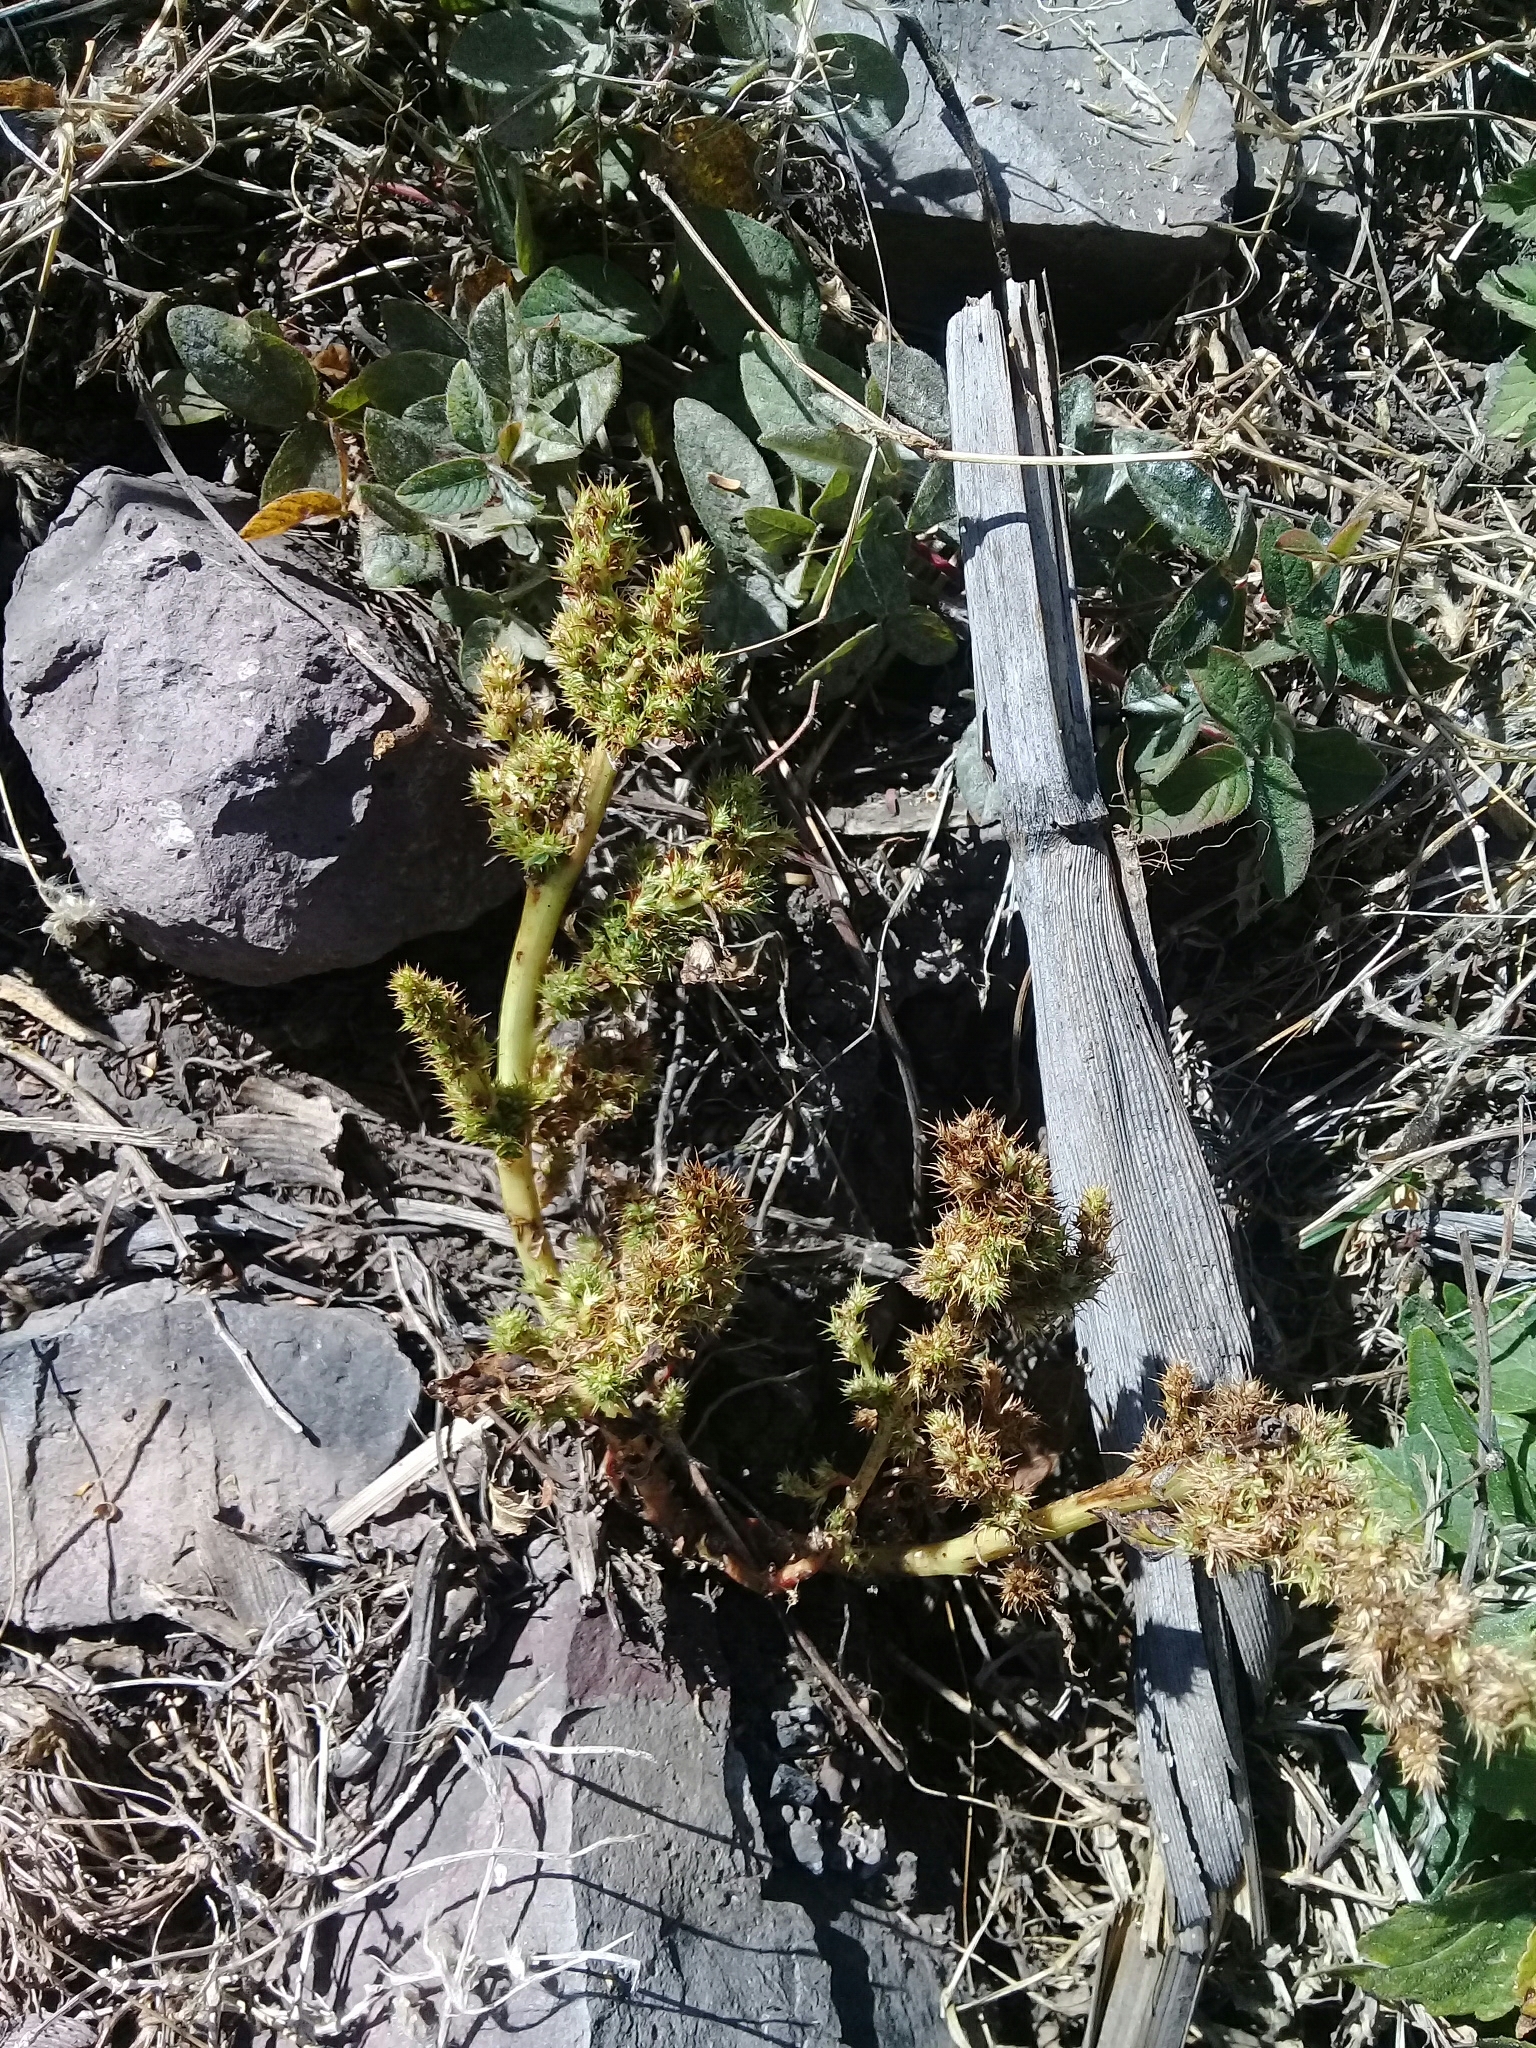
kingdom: Plantae
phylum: Tracheophyta
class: Magnoliopsida
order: Caryophyllales
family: Amaranthaceae
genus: Amaranthus
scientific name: Amaranthus palmeri
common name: Dioecious amaranth
